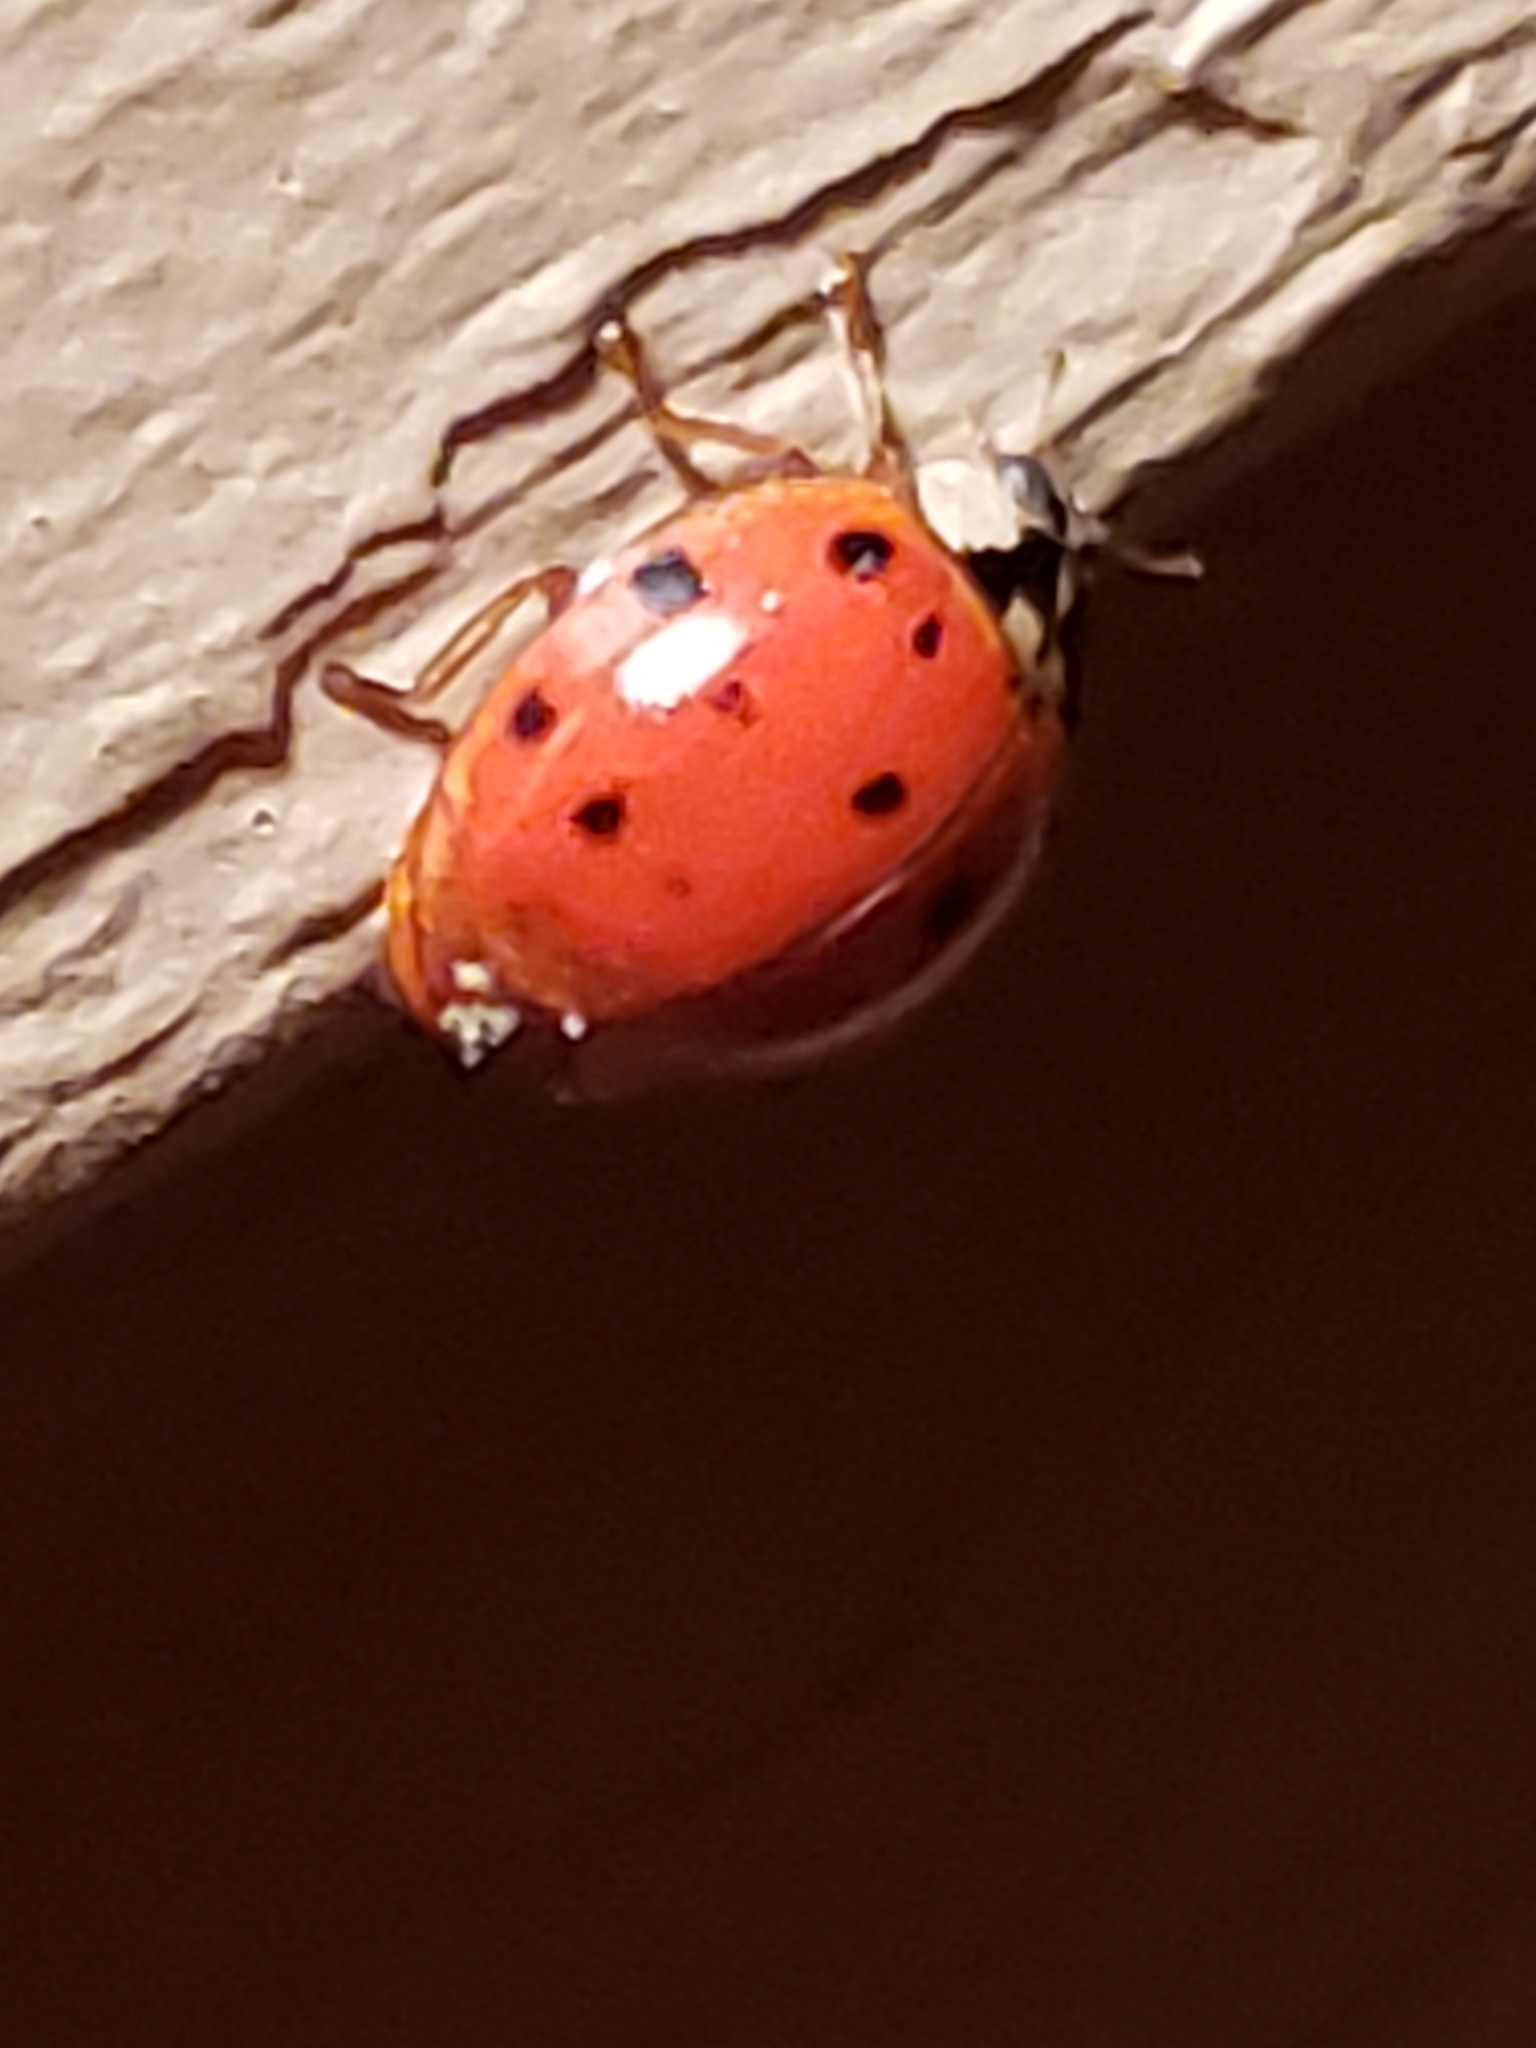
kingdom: Fungi
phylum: Ascomycota
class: Laboulbeniomycetes
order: Laboulbeniales
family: Laboulbeniaceae
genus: Hesperomyces
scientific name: Hesperomyces harmoniae
